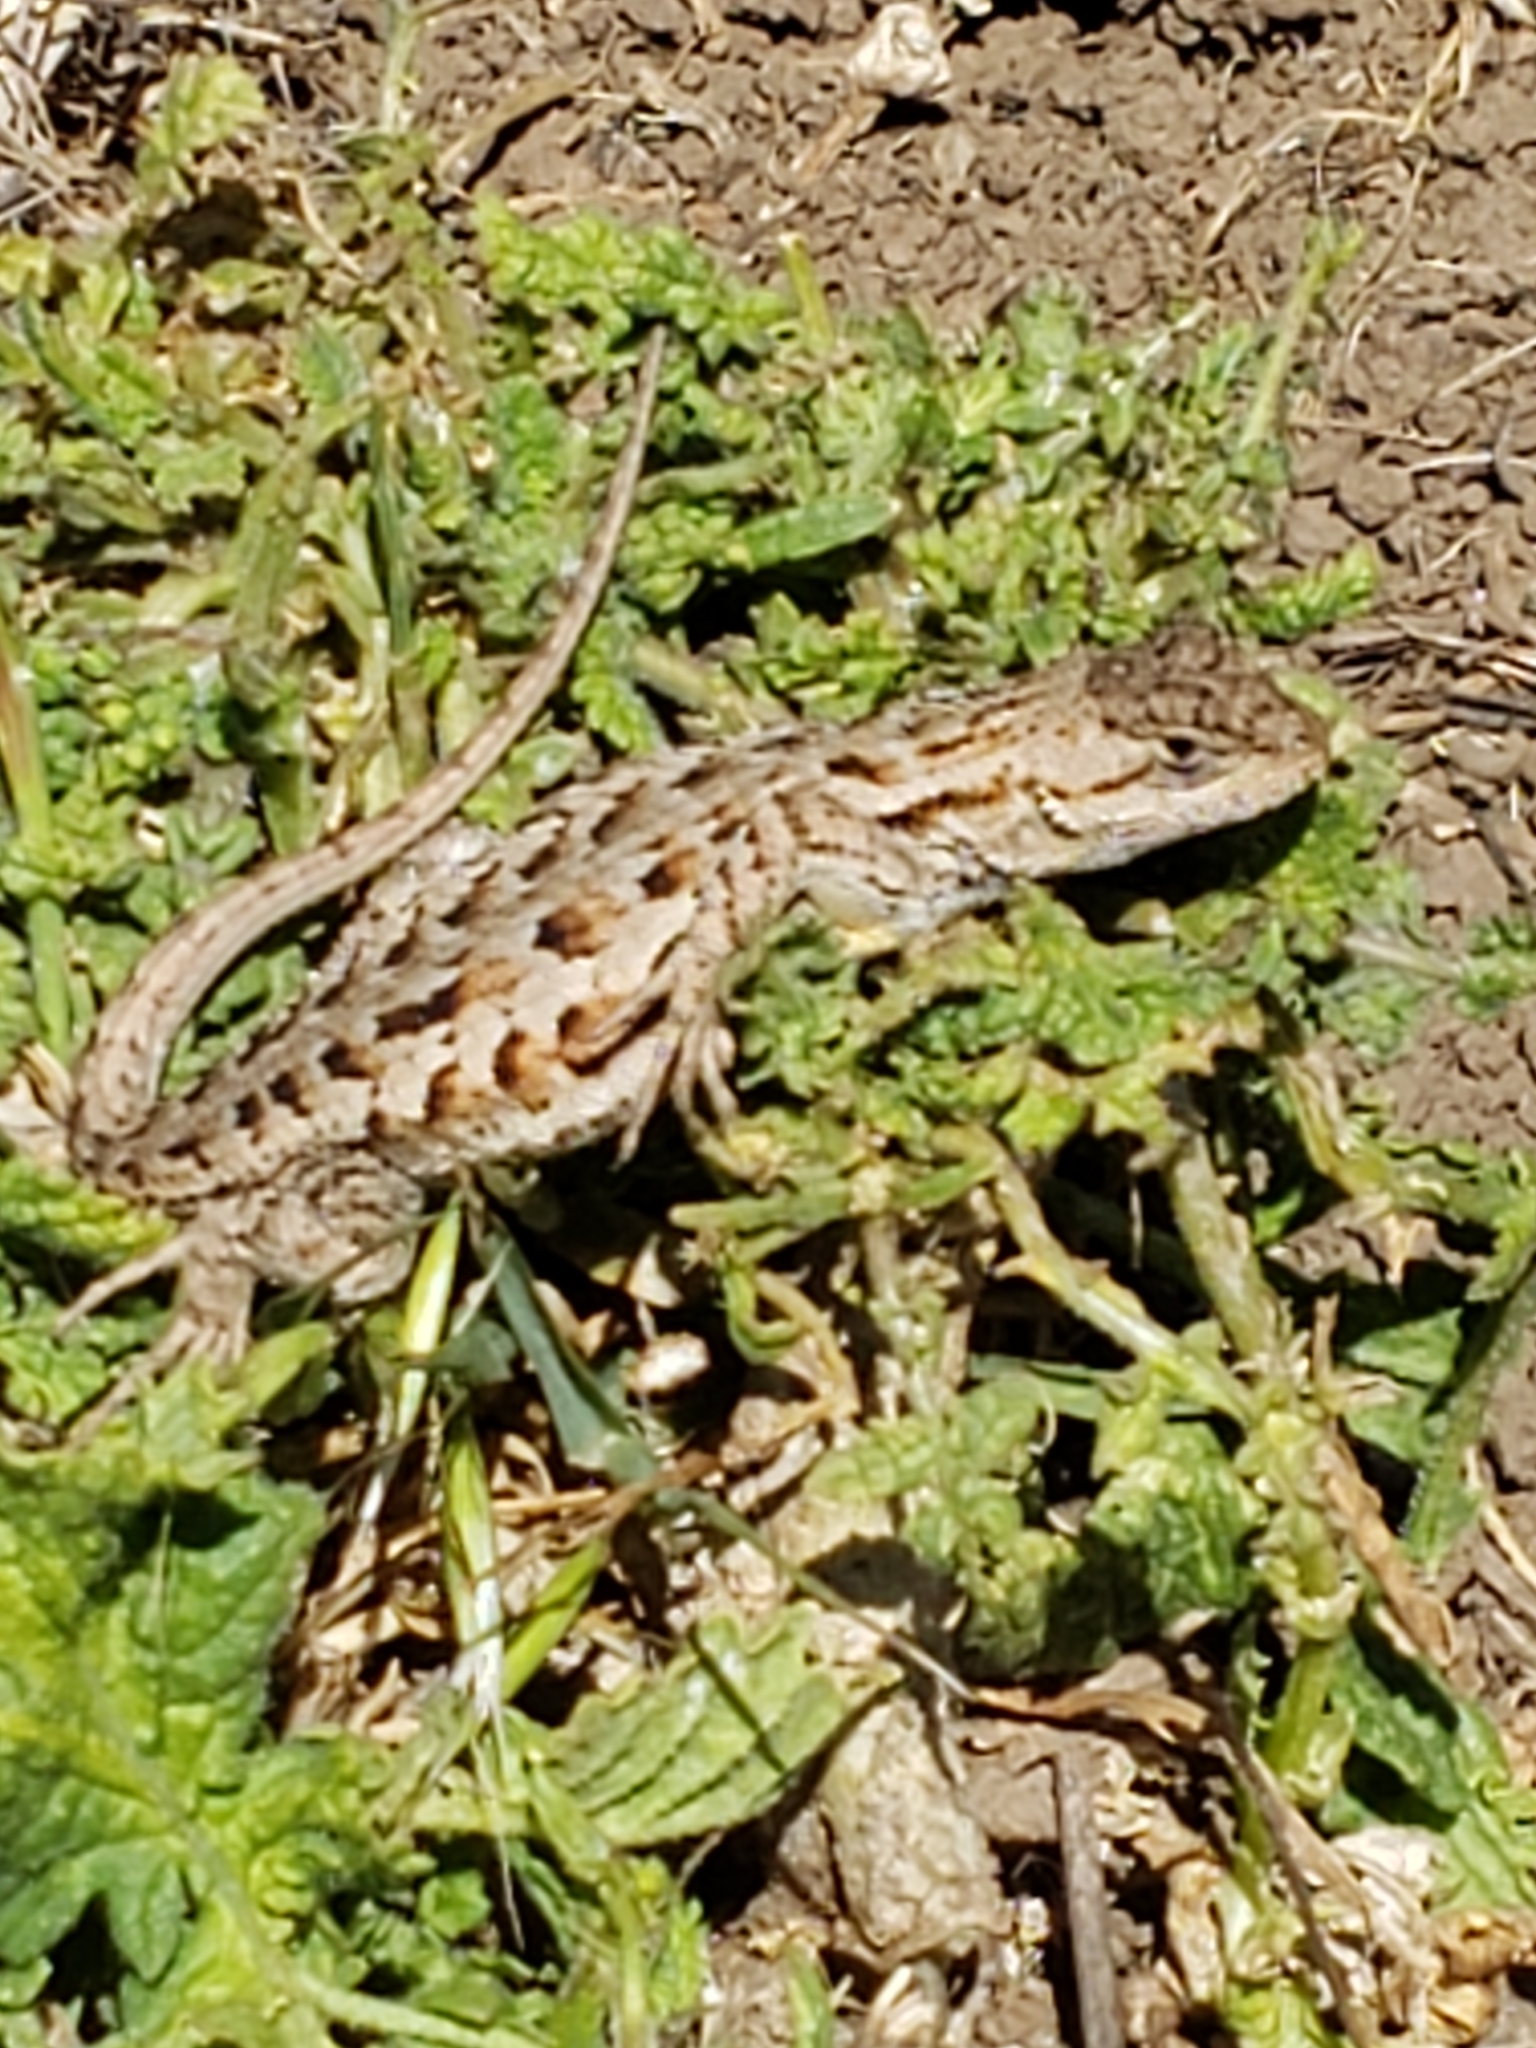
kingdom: Animalia
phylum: Chordata
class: Squamata
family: Phrynosomatidae
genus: Sceloporus
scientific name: Sceloporus occidentalis
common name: Western fence lizard
